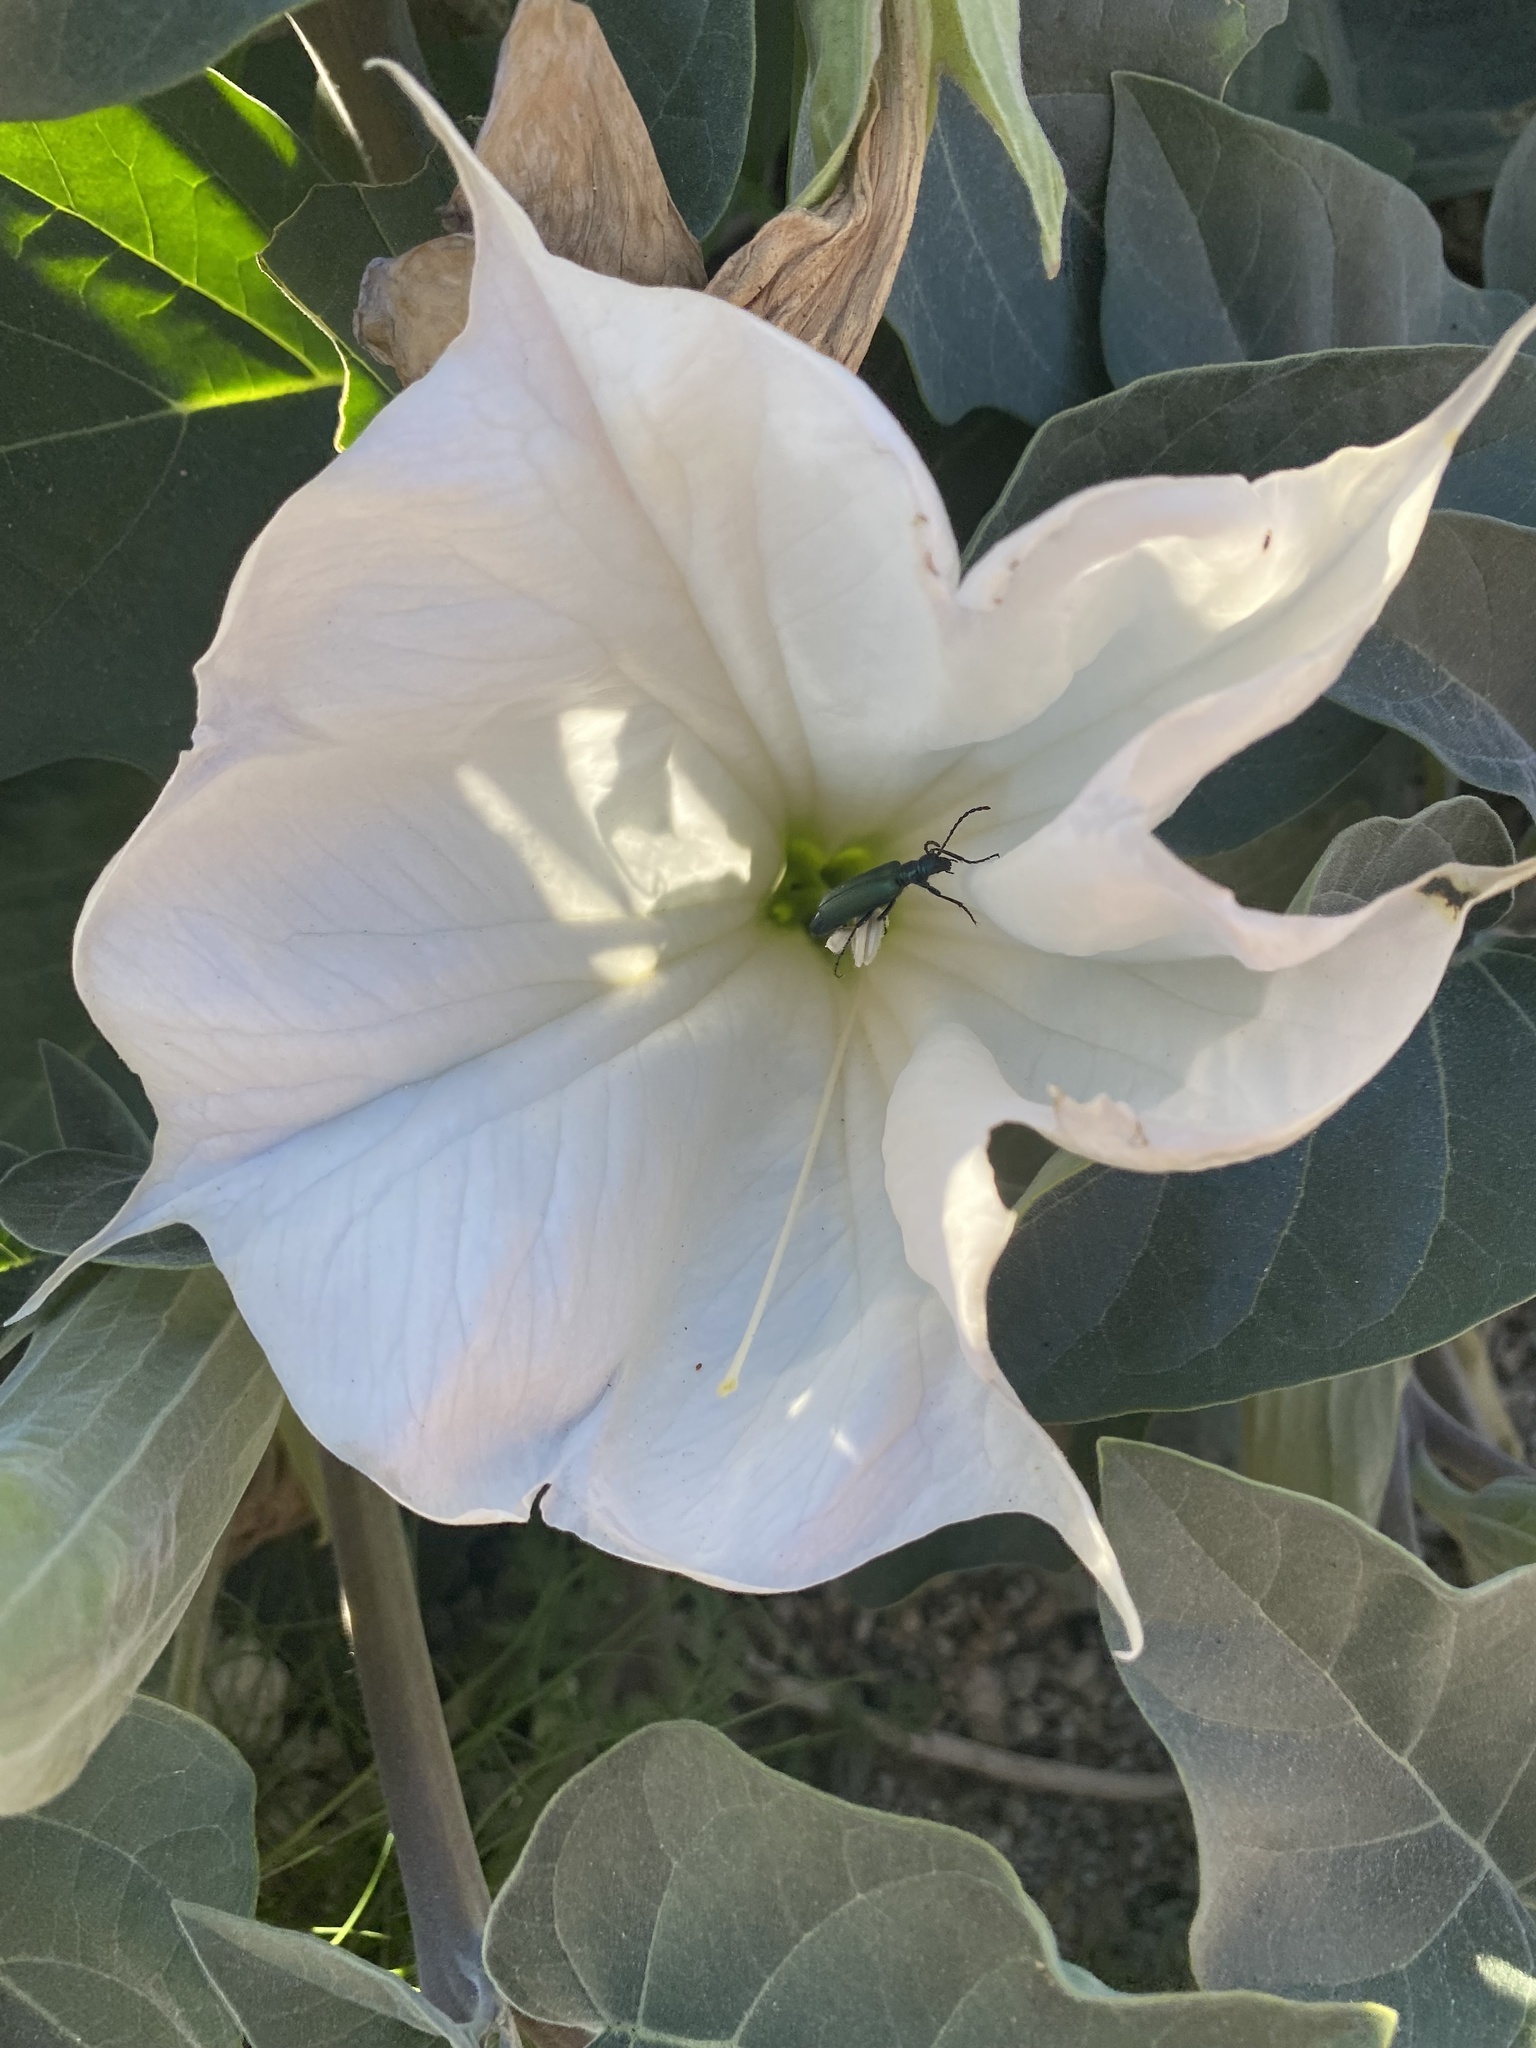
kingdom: Animalia
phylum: Arthropoda
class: Insecta
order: Coleoptera
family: Meloidae
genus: Lytta
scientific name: Lytta stygica
